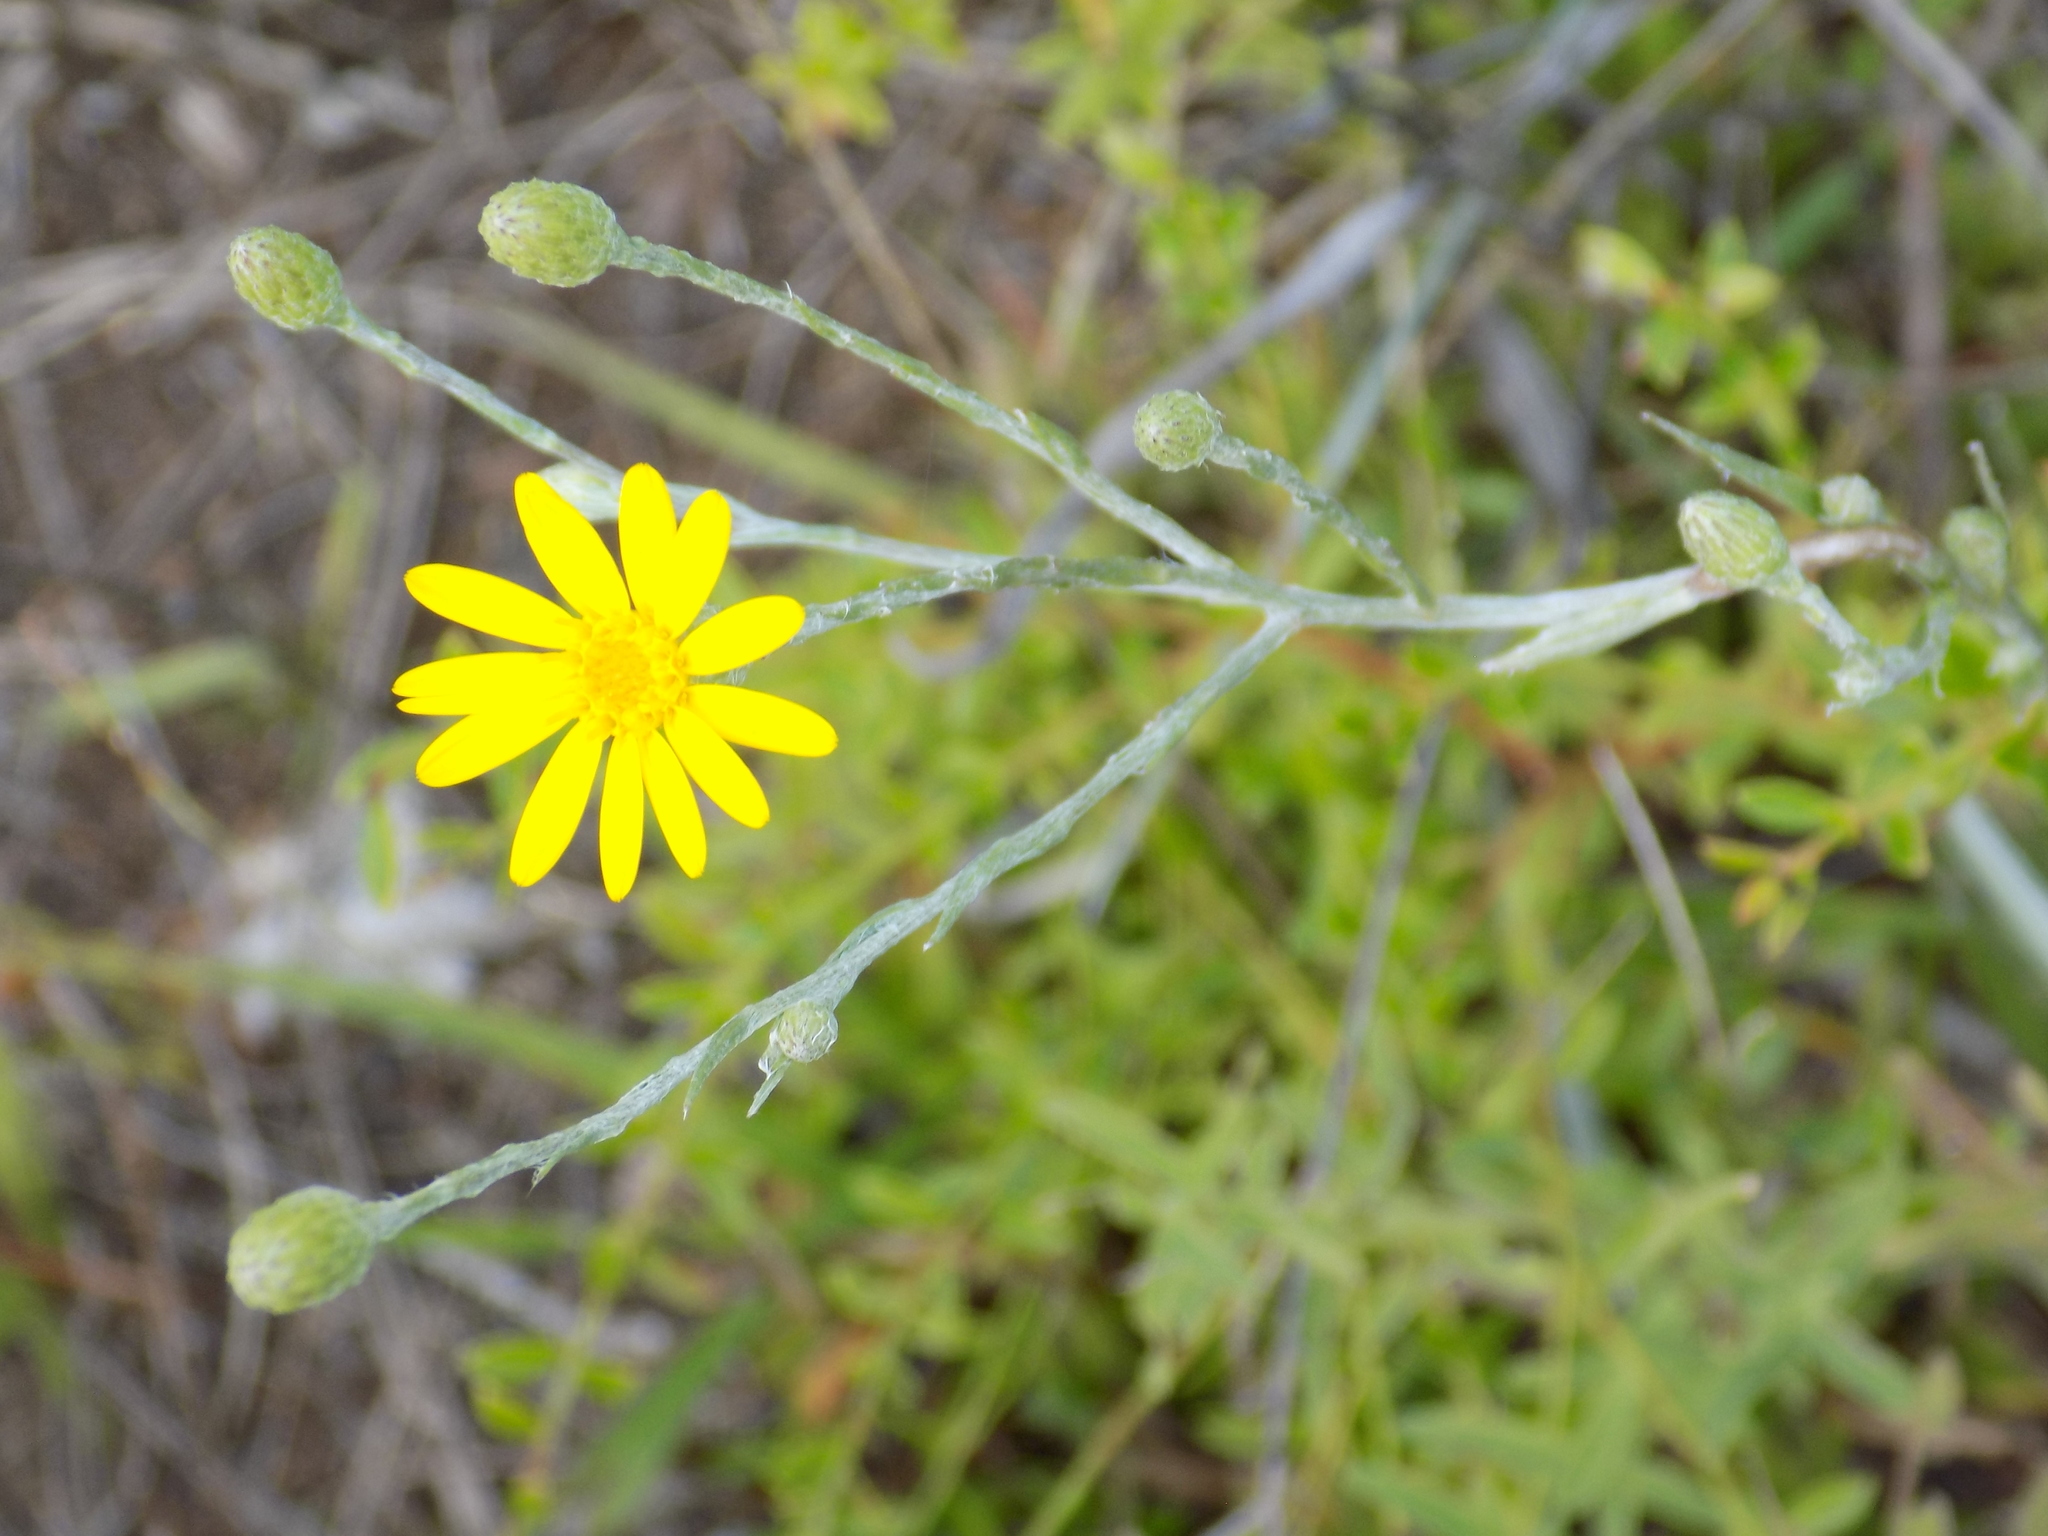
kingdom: Plantae
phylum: Tracheophyta
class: Magnoliopsida
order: Asterales
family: Asteraceae
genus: Pityopsis
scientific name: Pityopsis graminifolia
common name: Grass-leaf golden-aster
